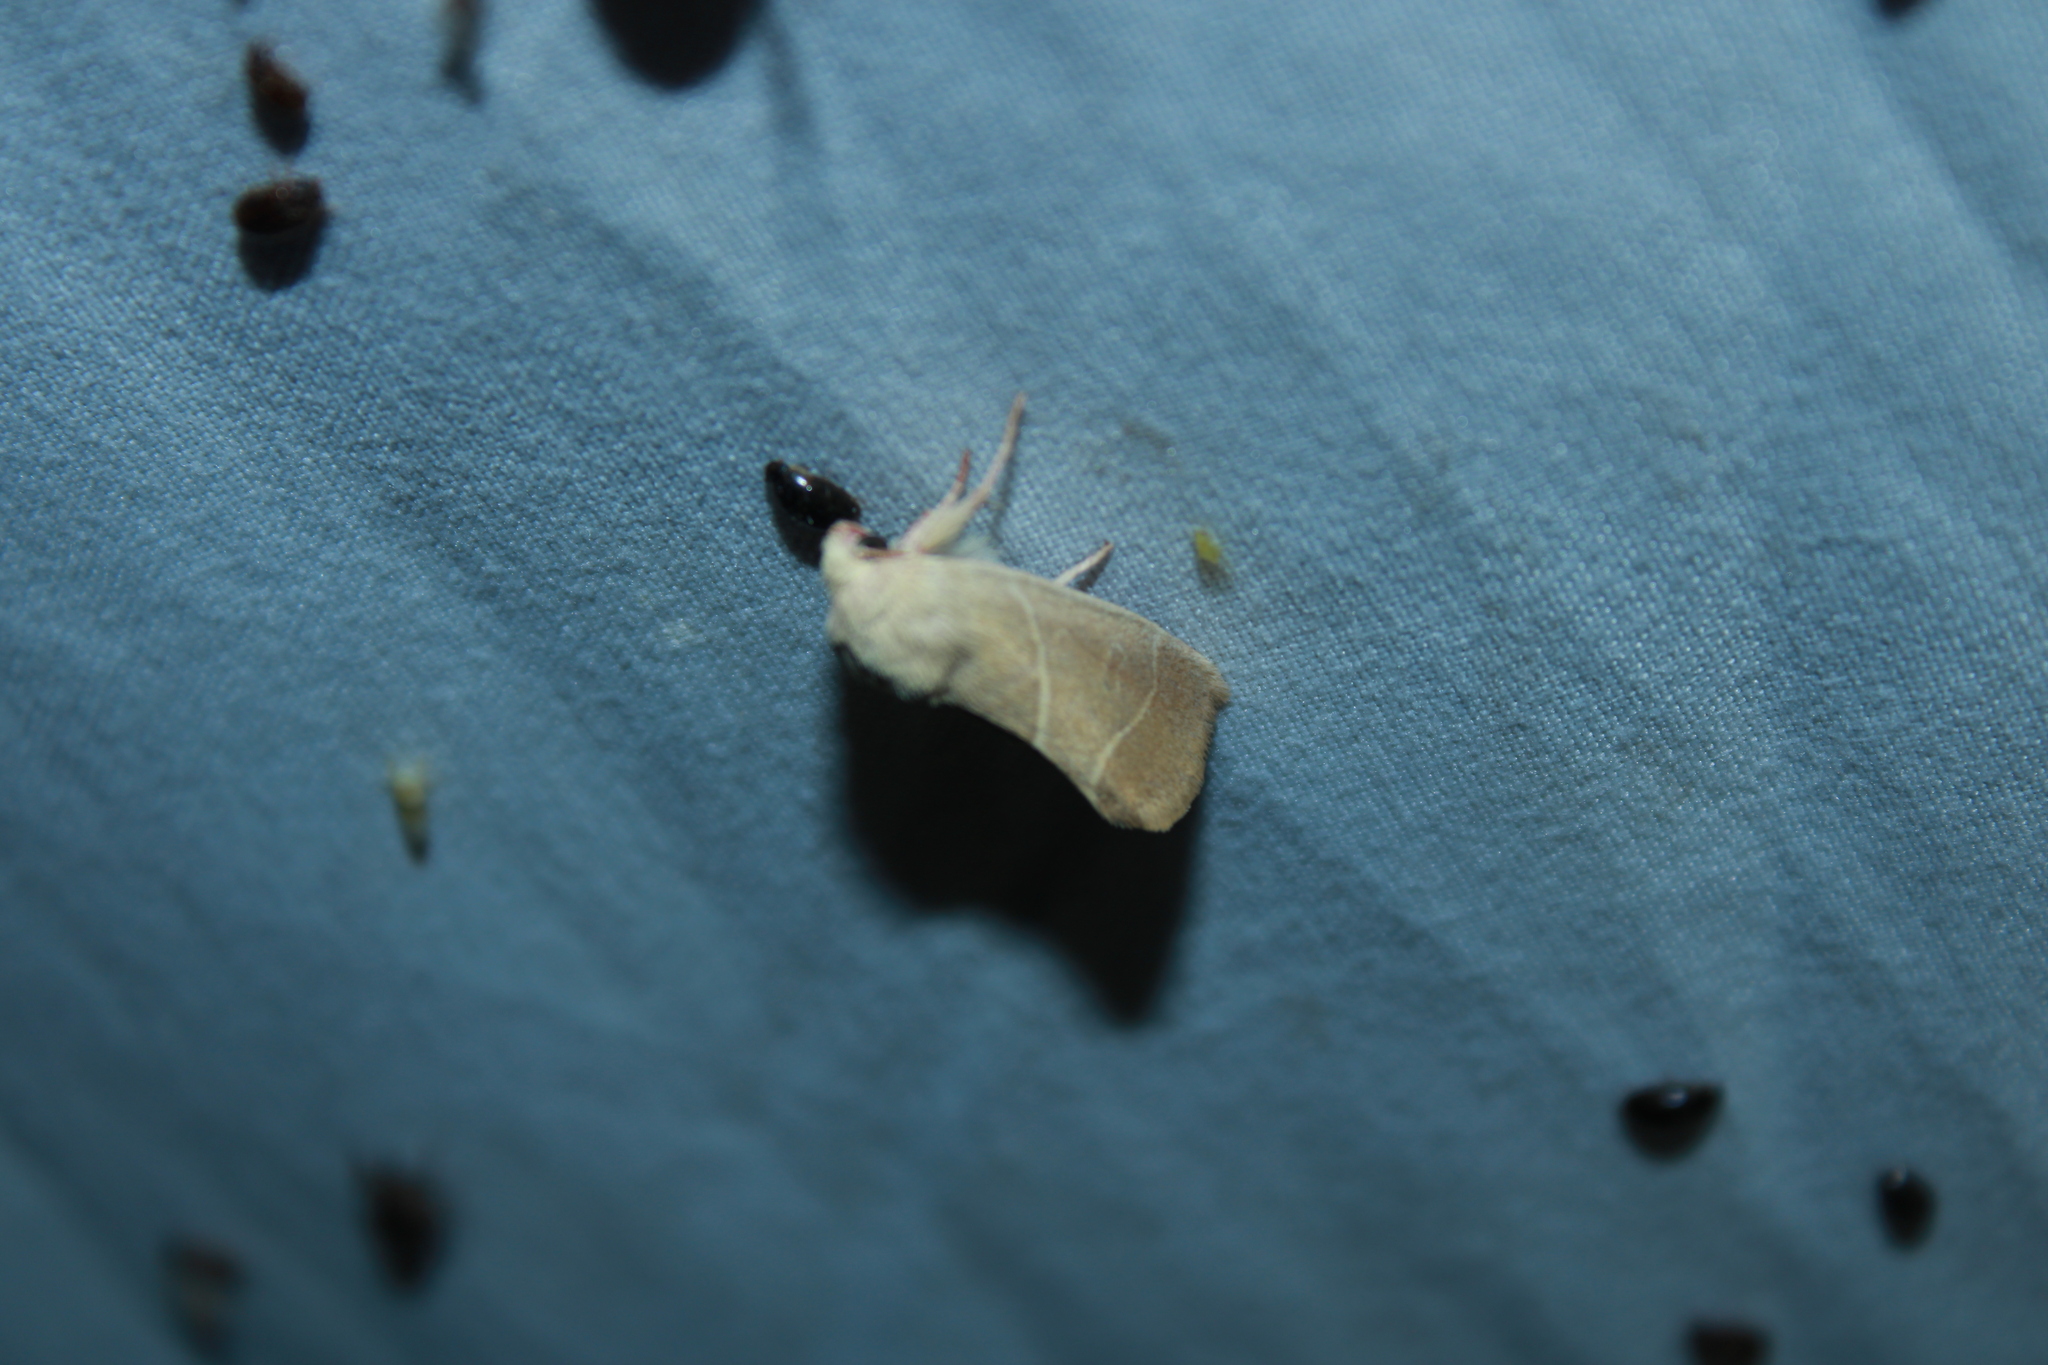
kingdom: Animalia
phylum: Arthropoda
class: Insecta
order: Lepidoptera
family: Noctuidae
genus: Cosmia
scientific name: Cosmia calami
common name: American dun-bar moth
